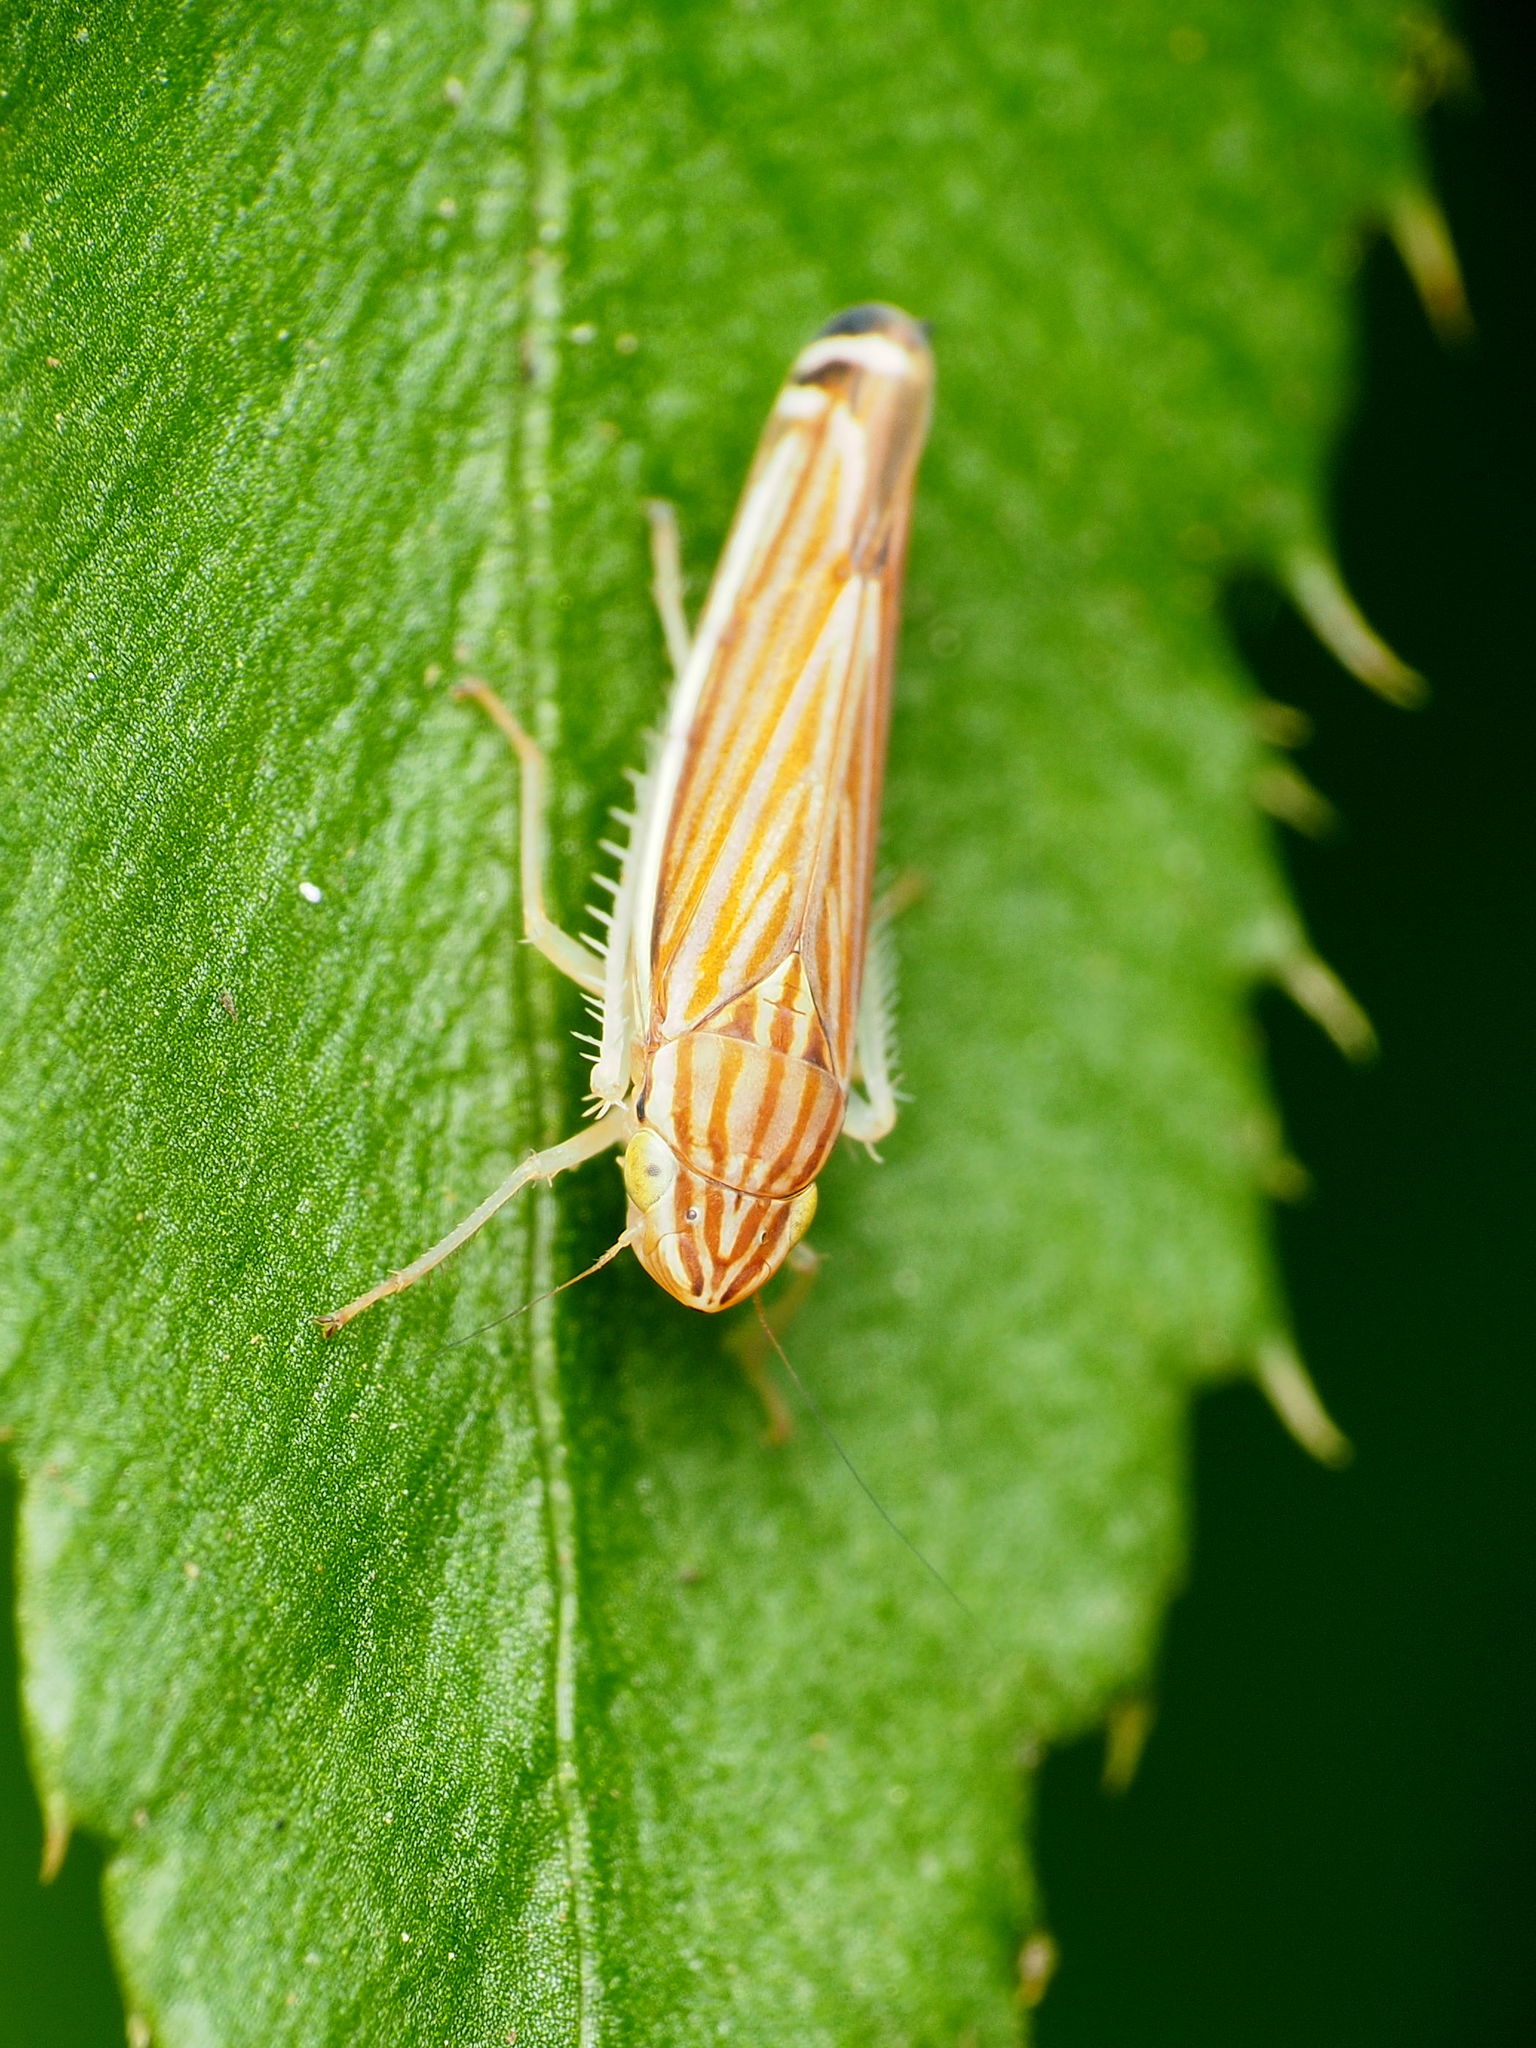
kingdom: Animalia
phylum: Arthropoda
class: Insecta
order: Hemiptera
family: Cicadellidae
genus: Sibovia
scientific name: Sibovia occatoria
